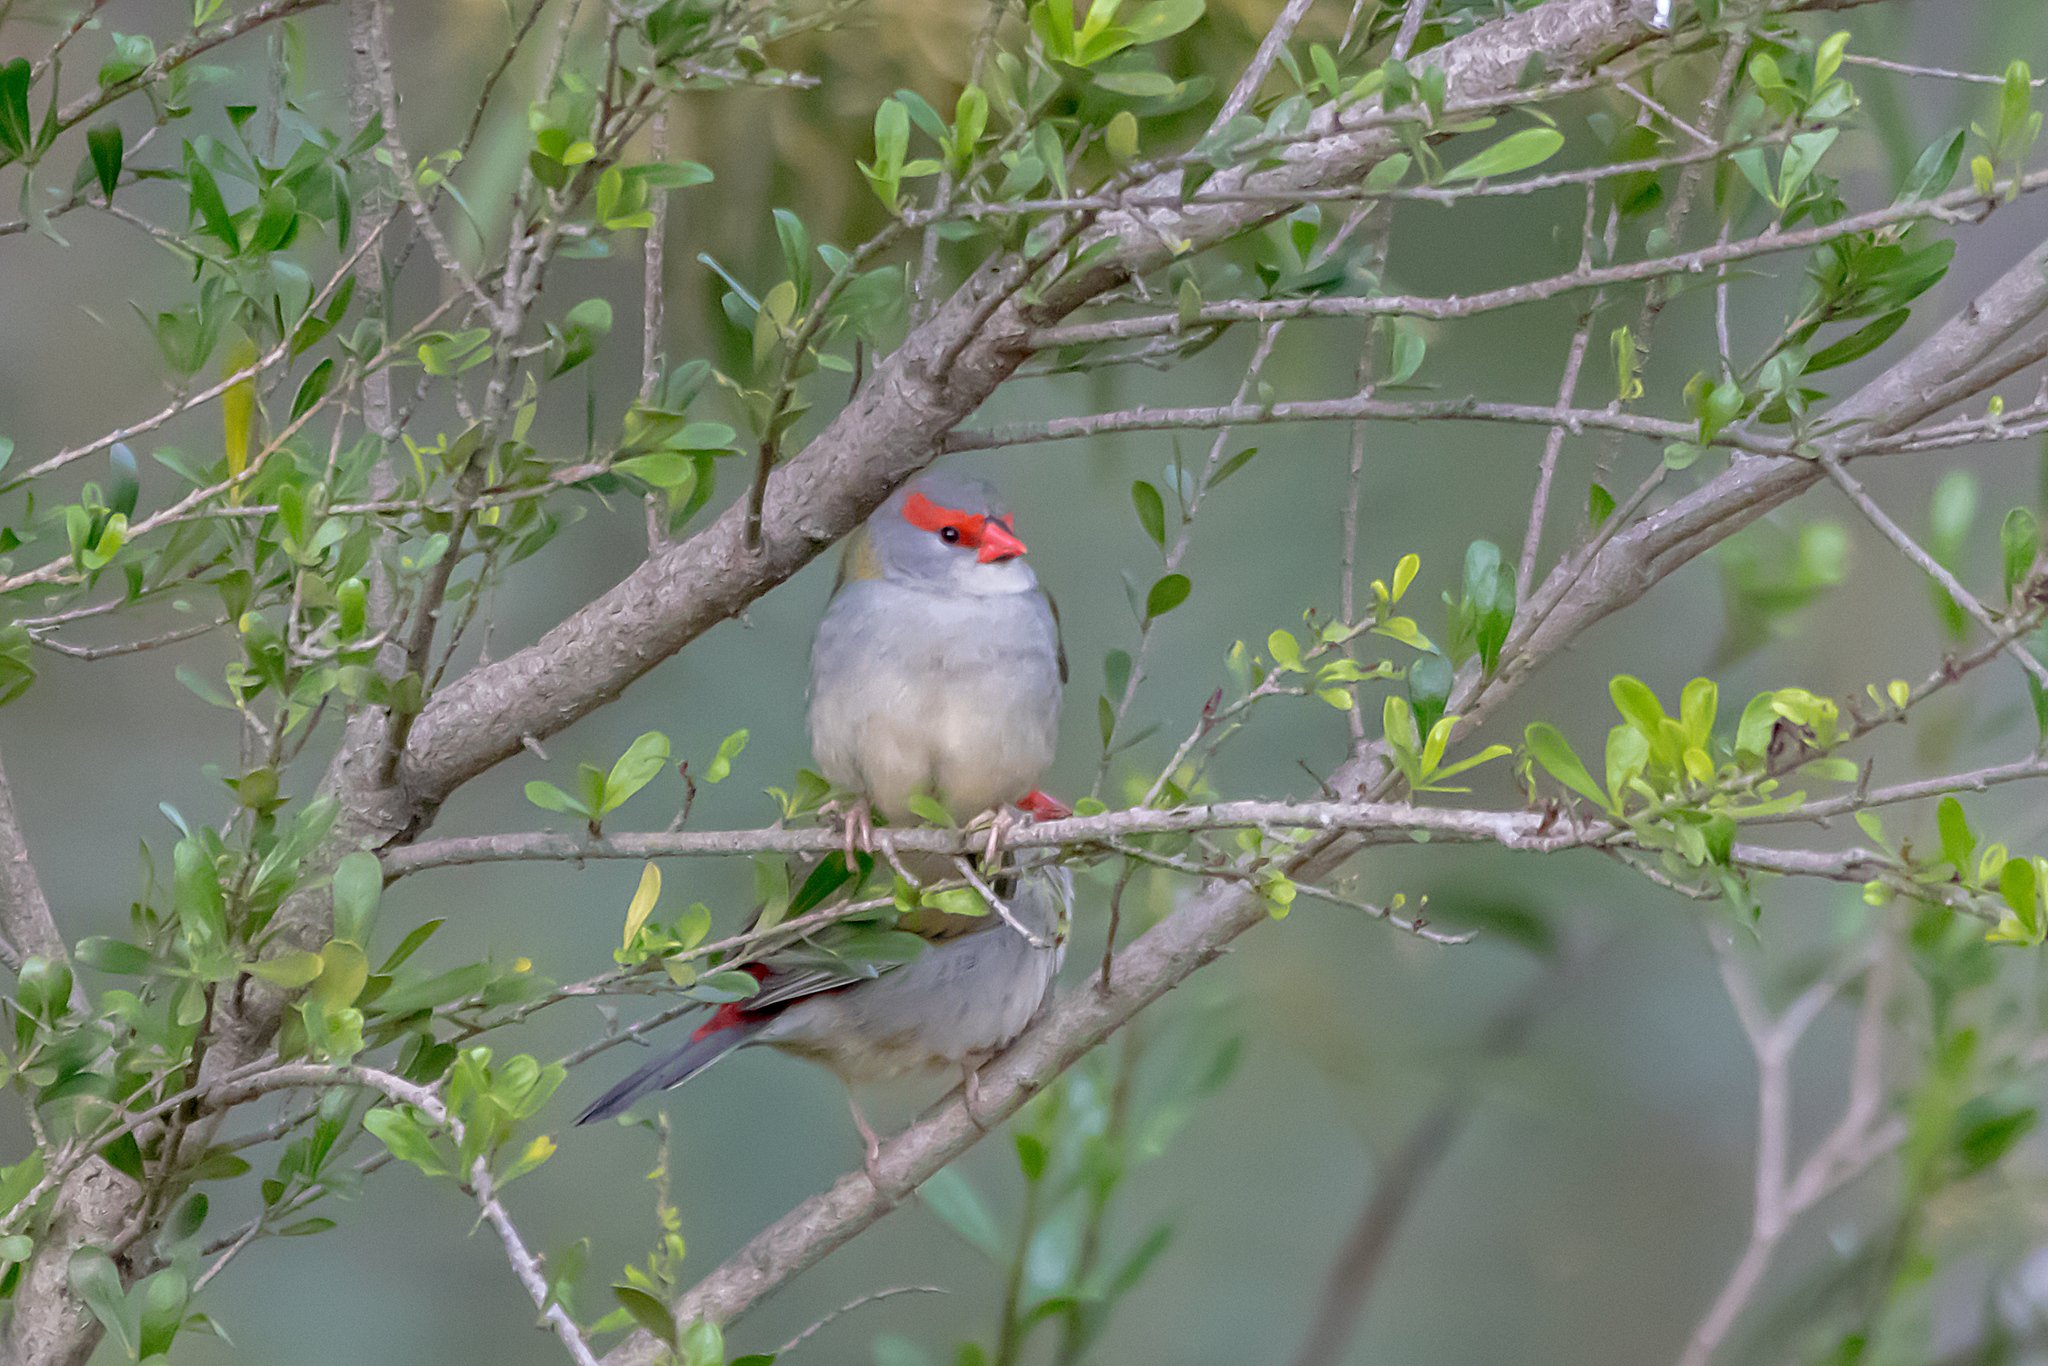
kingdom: Animalia
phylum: Chordata
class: Aves
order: Passeriformes
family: Estrildidae
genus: Neochmia
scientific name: Neochmia temporalis
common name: Red-browed finch
